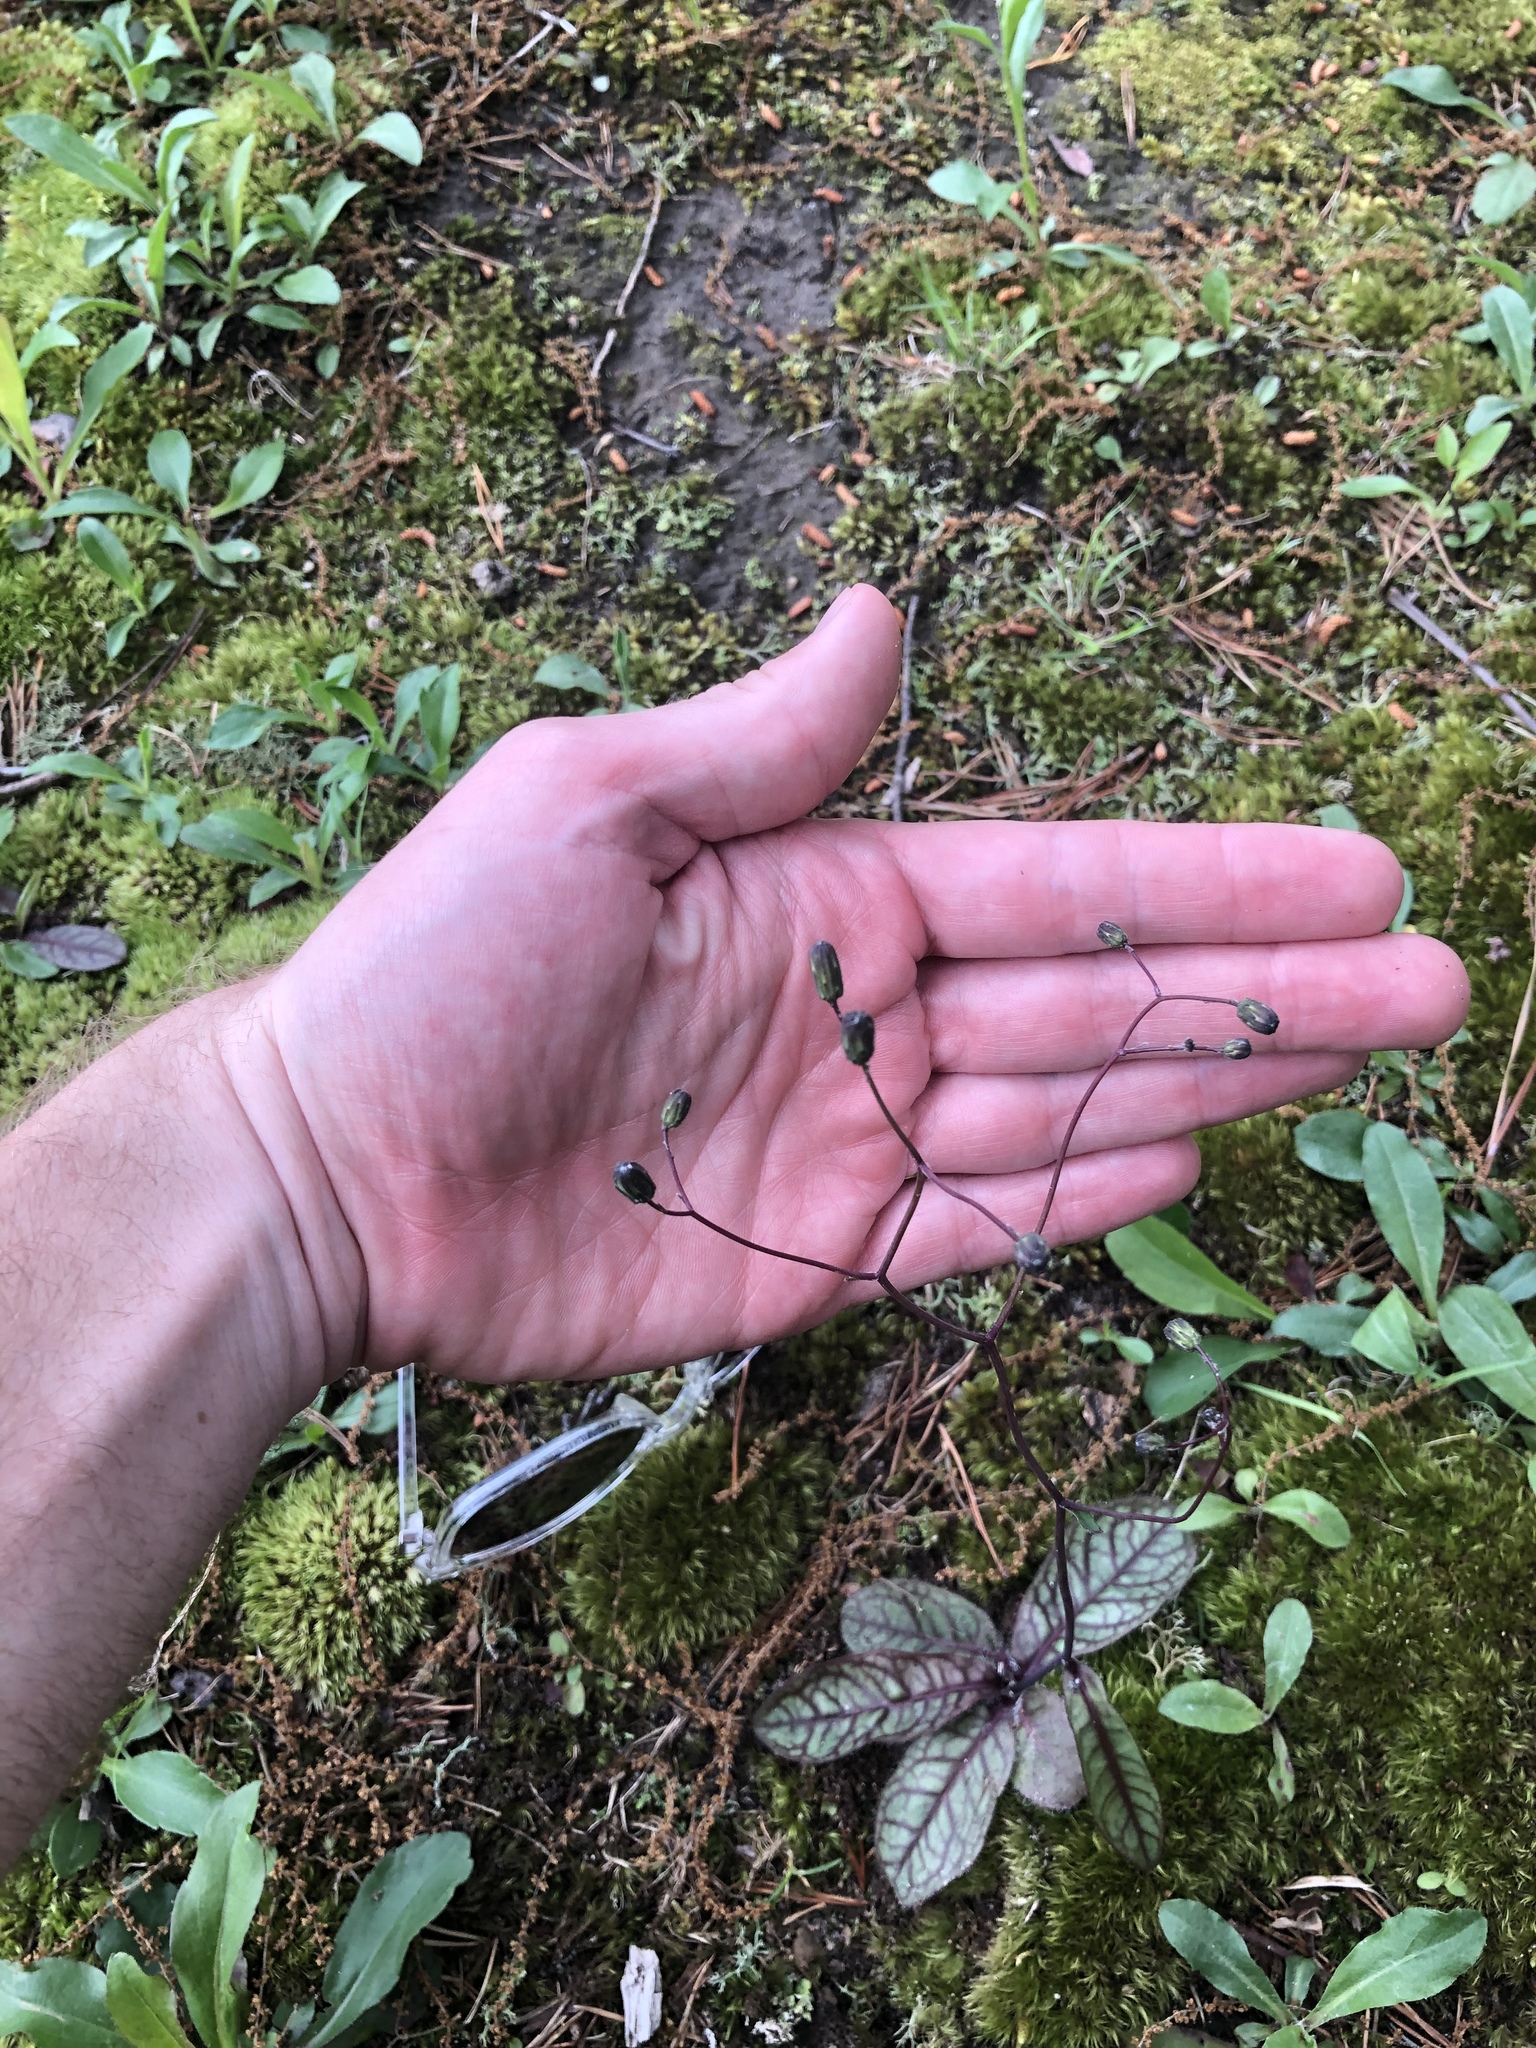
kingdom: Plantae
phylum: Tracheophyta
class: Magnoliopsida
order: Asterales
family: Asteraceae
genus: Hieracium
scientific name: Hieracium venosum
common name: Rattlesnake hawkweed
